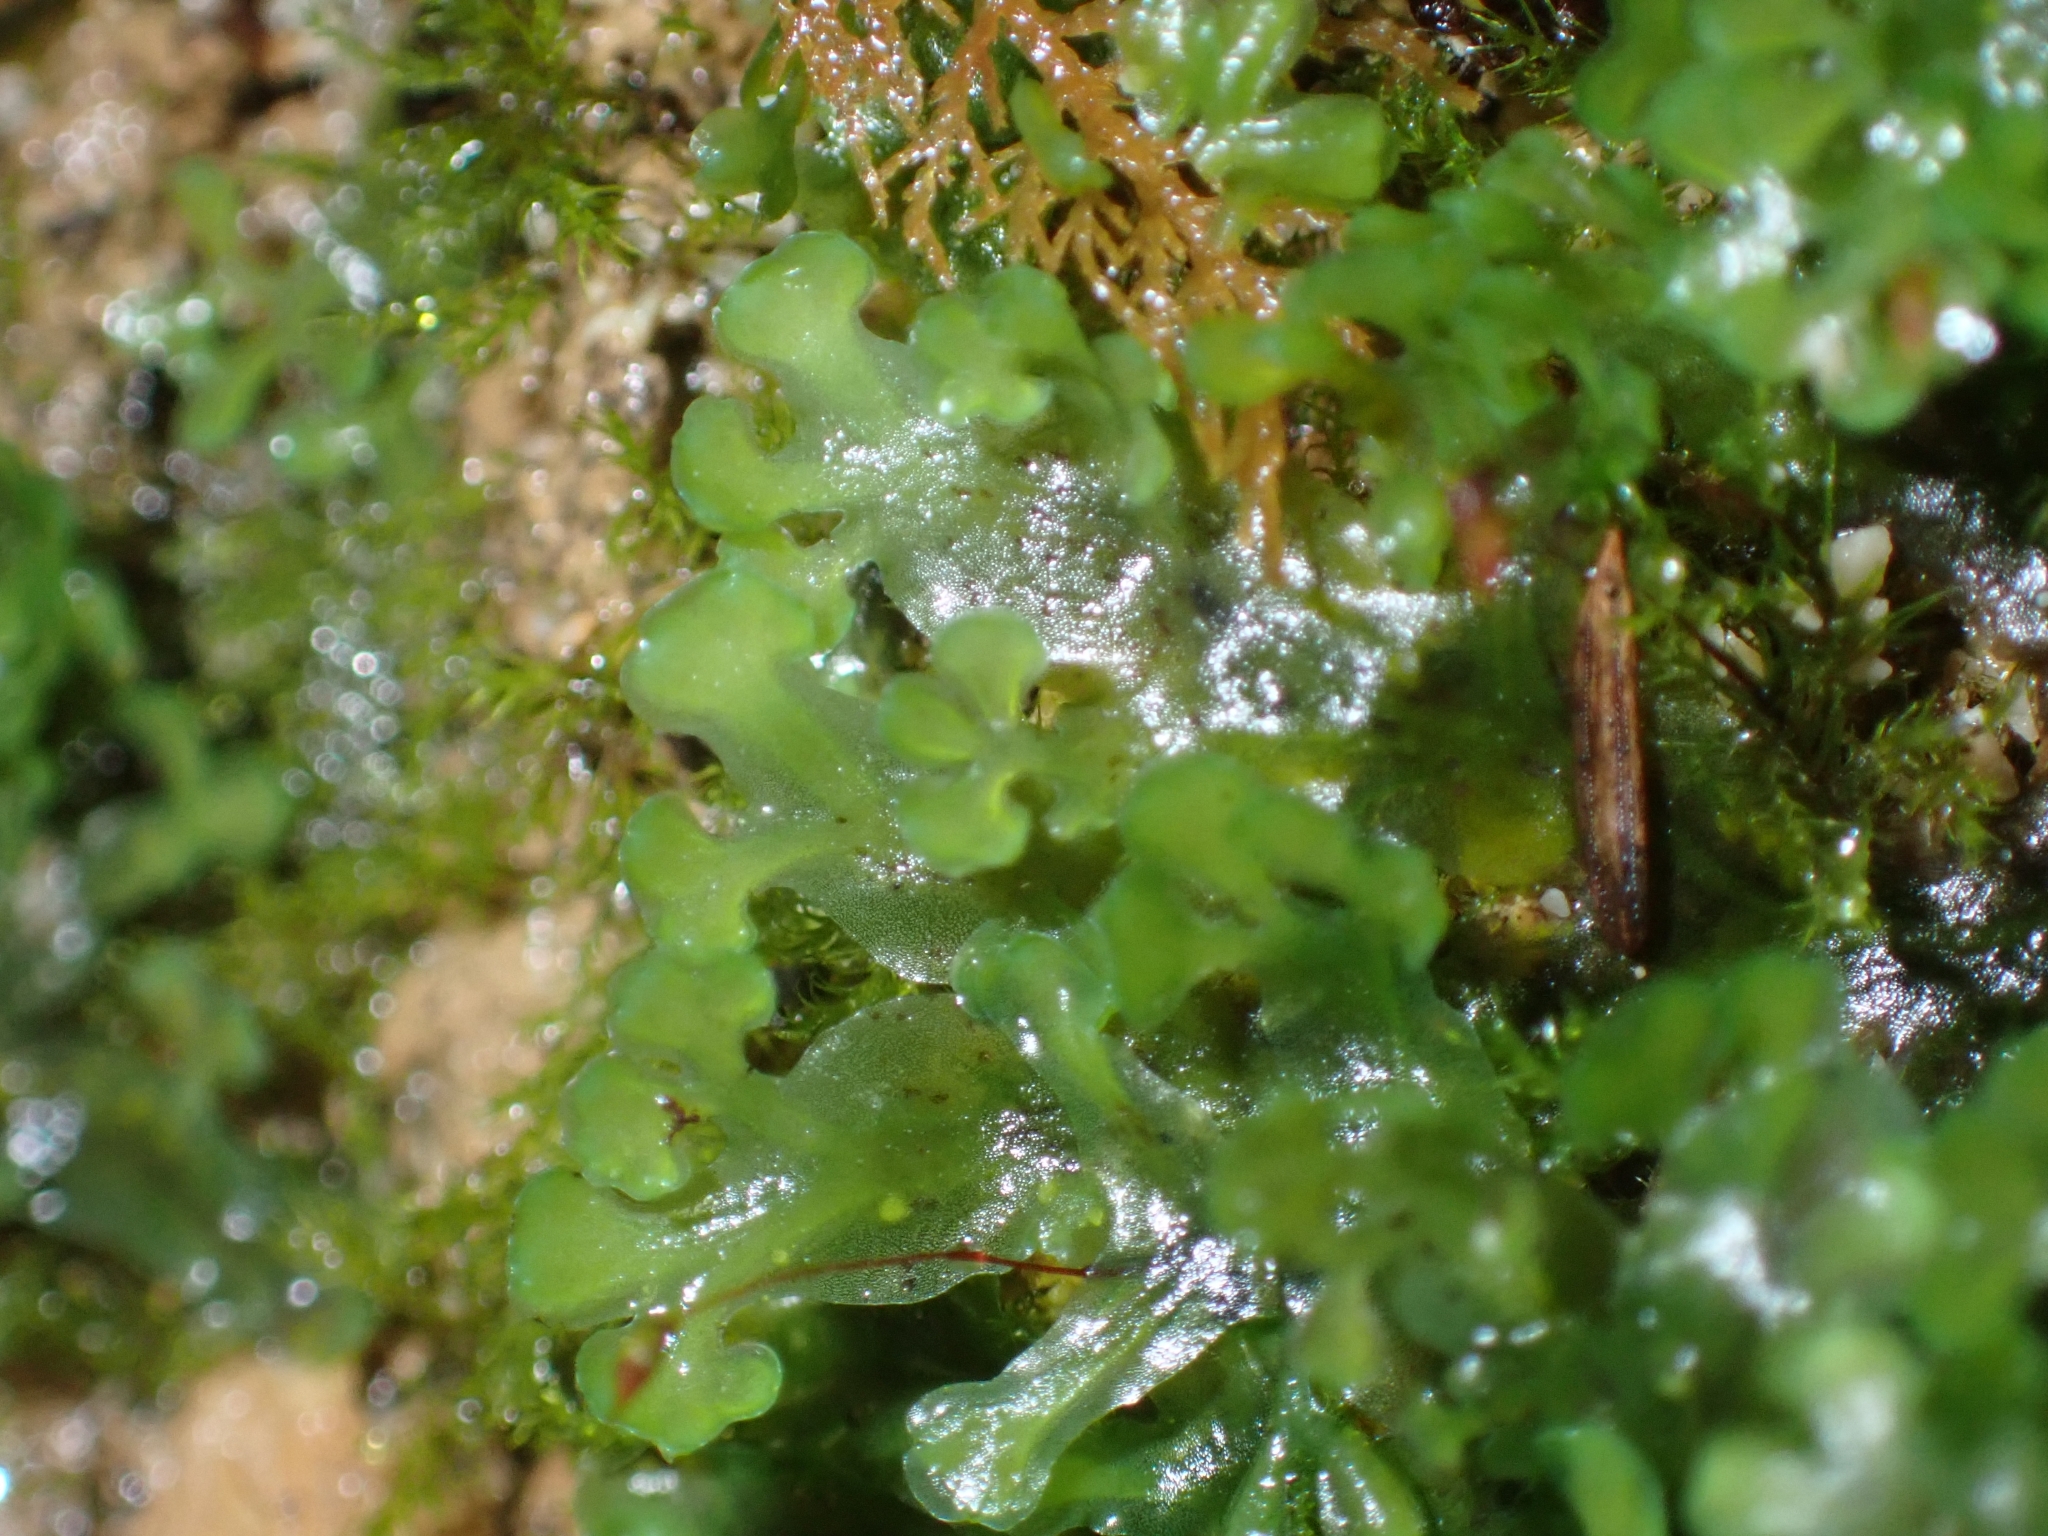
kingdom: Plantae
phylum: Marchantiophyta
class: Jungermanniopsida
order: Pelliales
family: Pelliaceae
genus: Apopellia
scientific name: Apopellia endiviifolia
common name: Endive pellia
